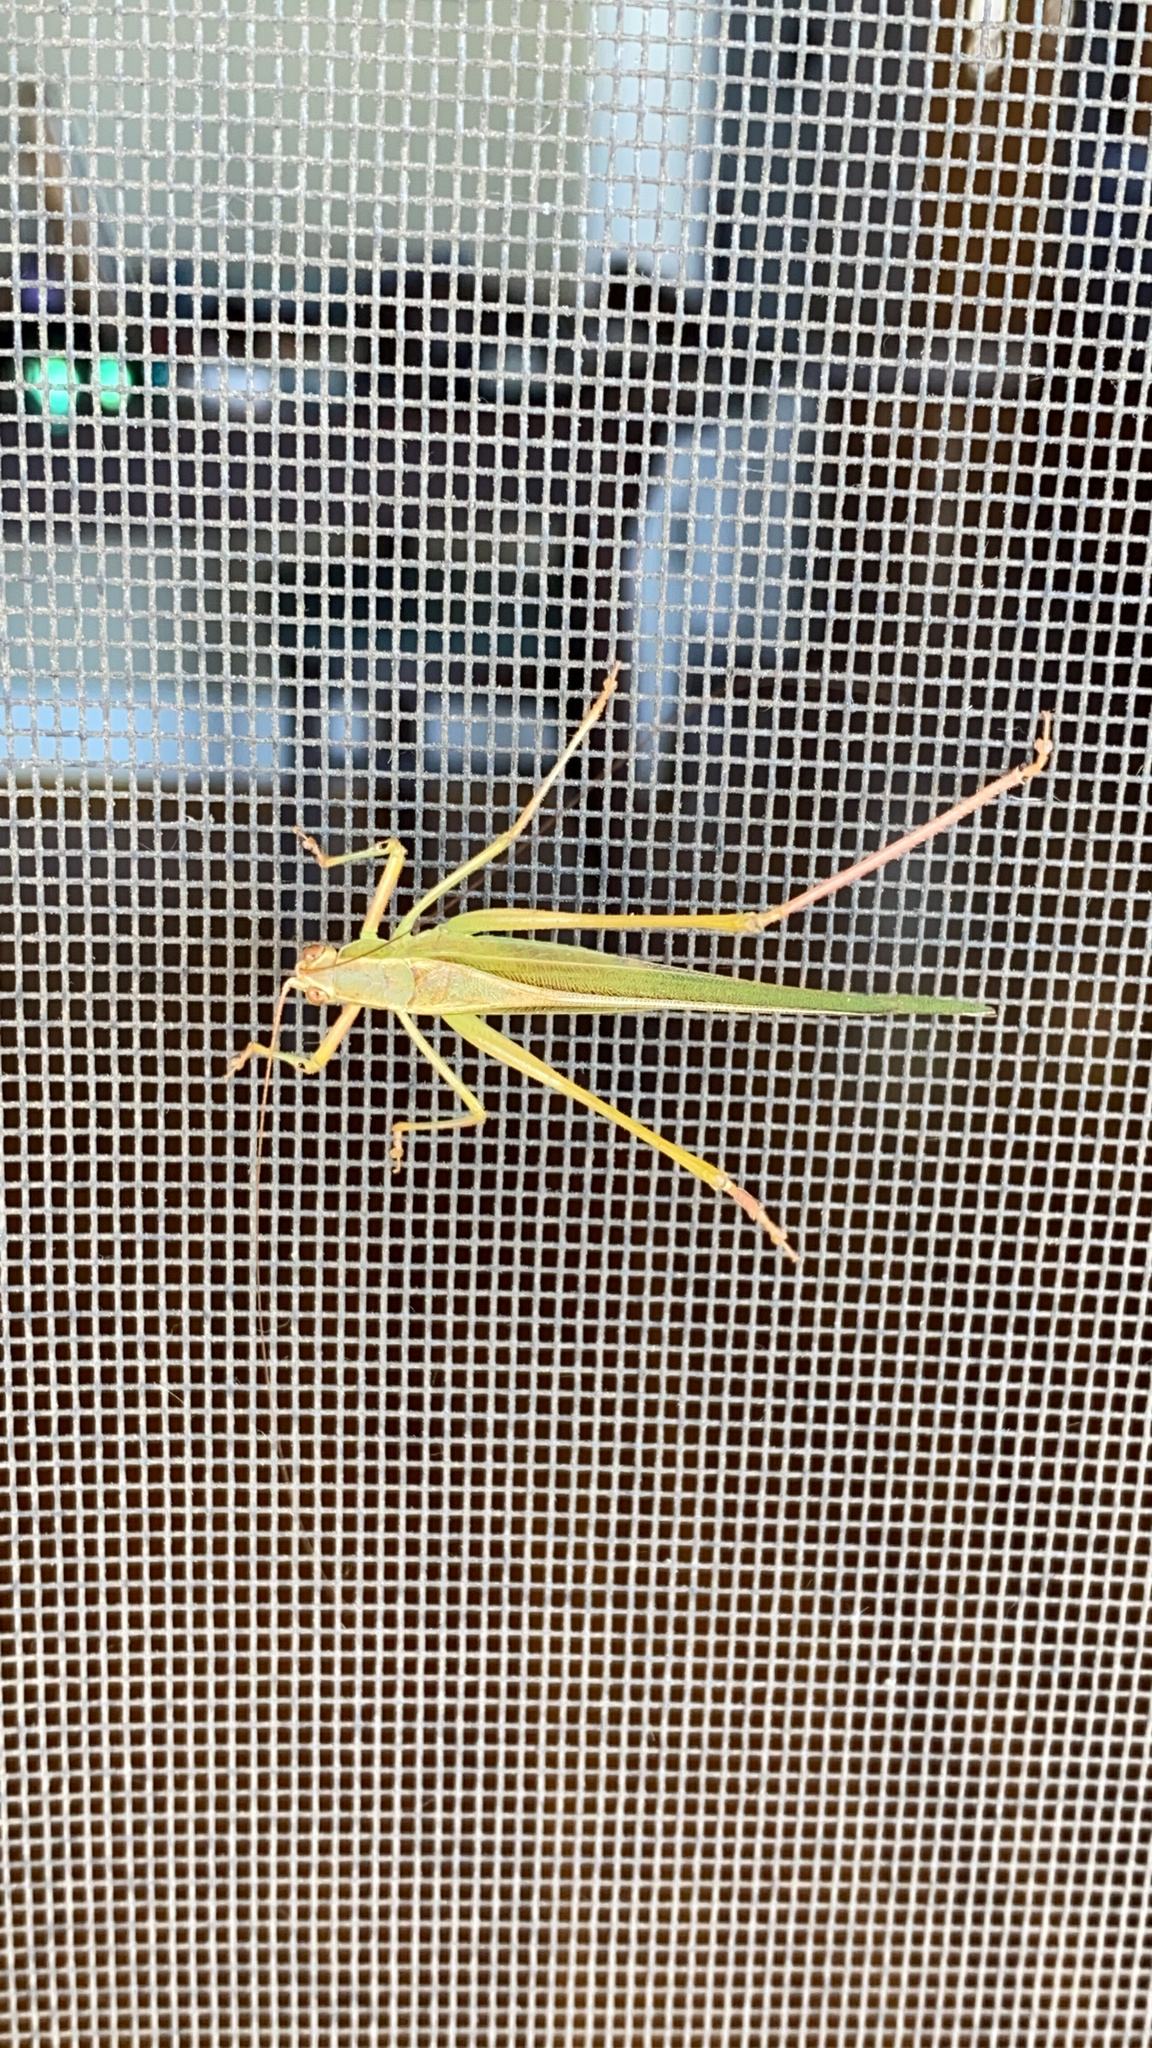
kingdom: Animalia
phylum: Arthropoda
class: Insecta
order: Orthoptera
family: Tettigoniidae
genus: Scudderia
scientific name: Scudderia
